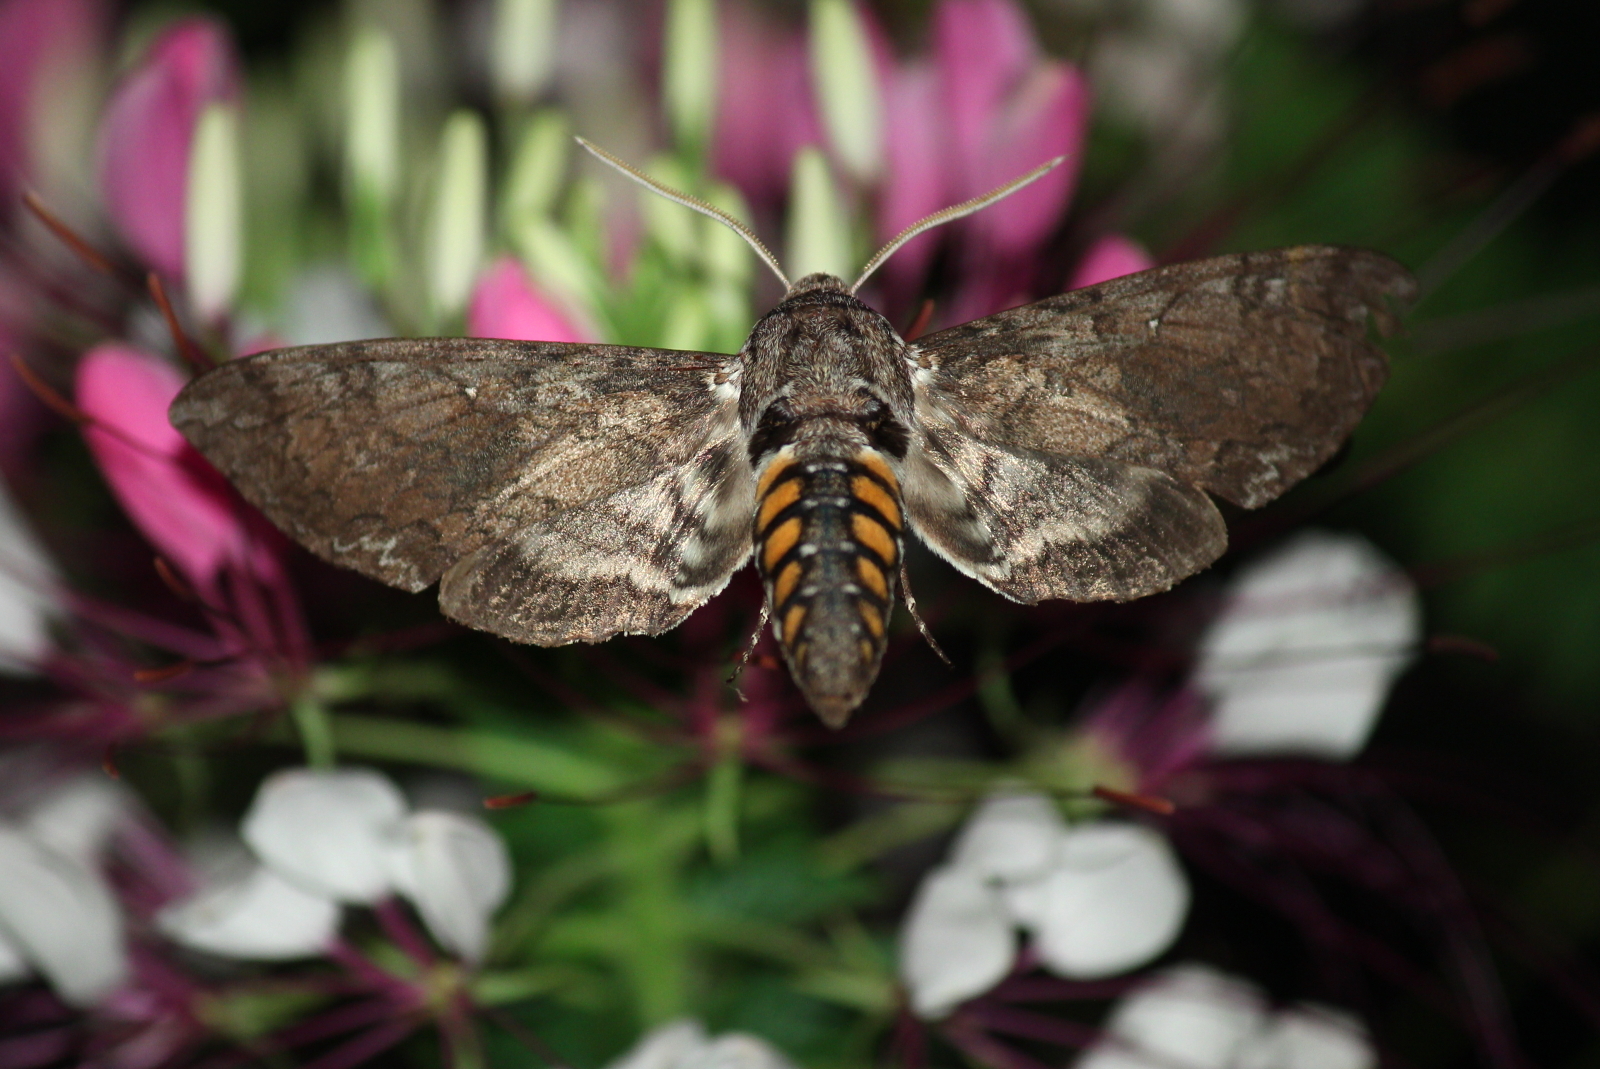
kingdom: Animalia
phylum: Arthropoda
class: Insecta
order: Lepidoptera
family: Sphingidae
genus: Manduca
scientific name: Manduca sexta
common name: Carolina sphinx
